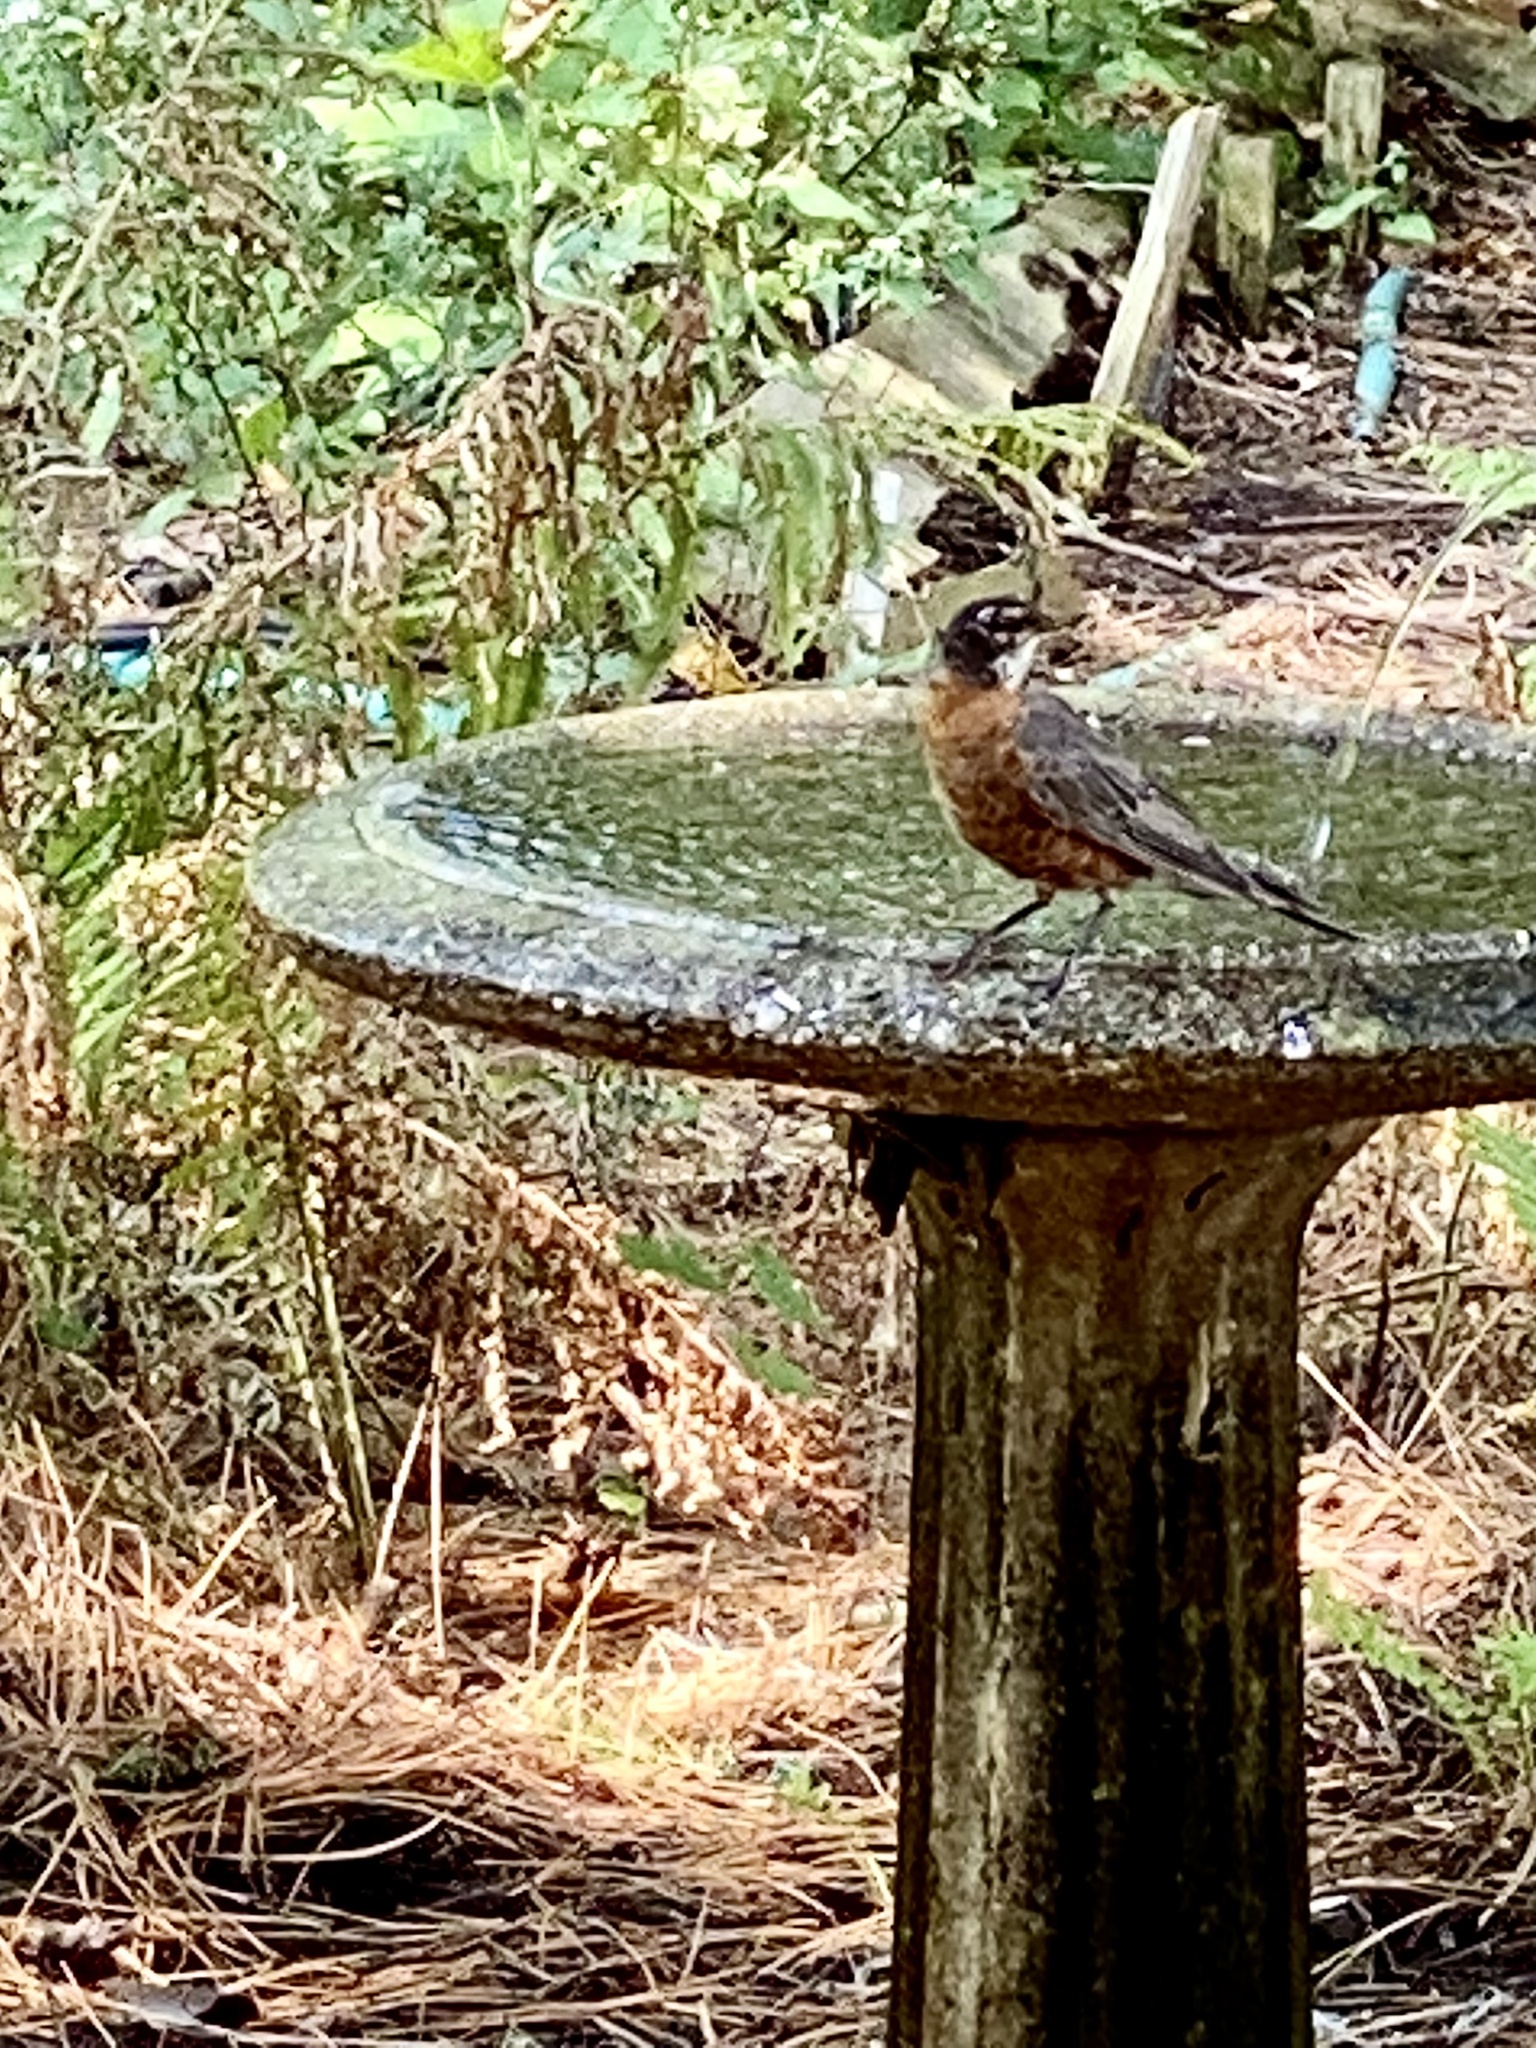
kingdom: Animalia
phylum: Chordata
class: Aves
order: Passeriformes
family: Turdidae
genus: Turdus
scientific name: Turdus migratorius
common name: American robin
